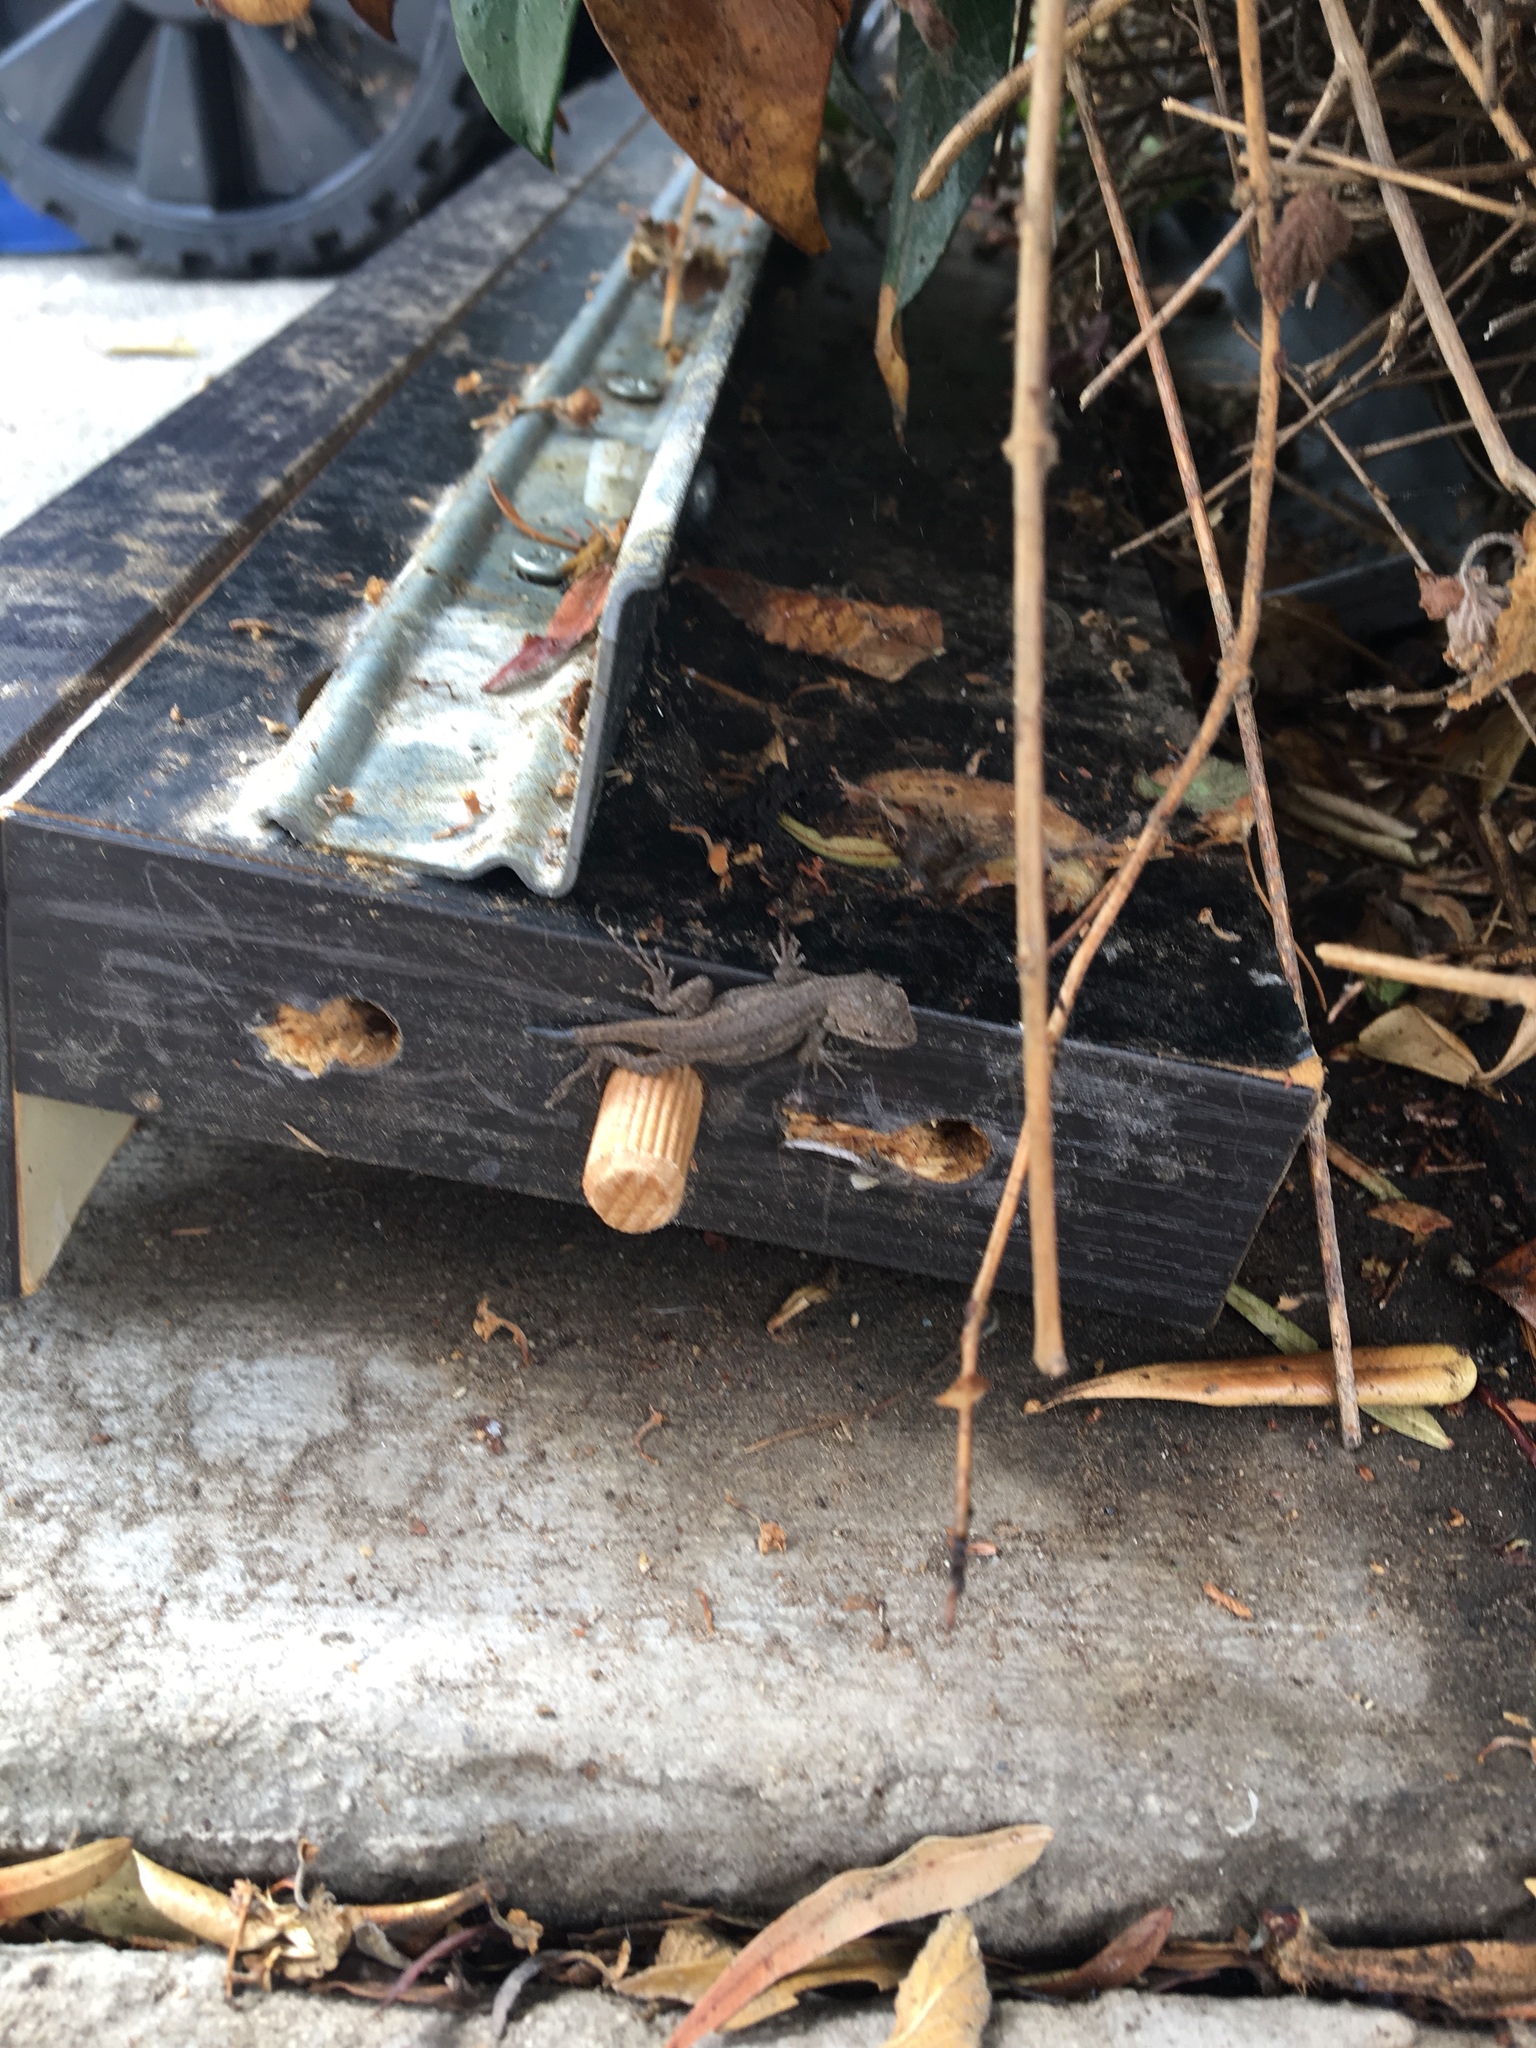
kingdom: Animalia
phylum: Chordata
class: Squamata
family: Phrynosomatidae
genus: Sceloporus
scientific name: Sceloporus occidentalis
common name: Western fence lizard
